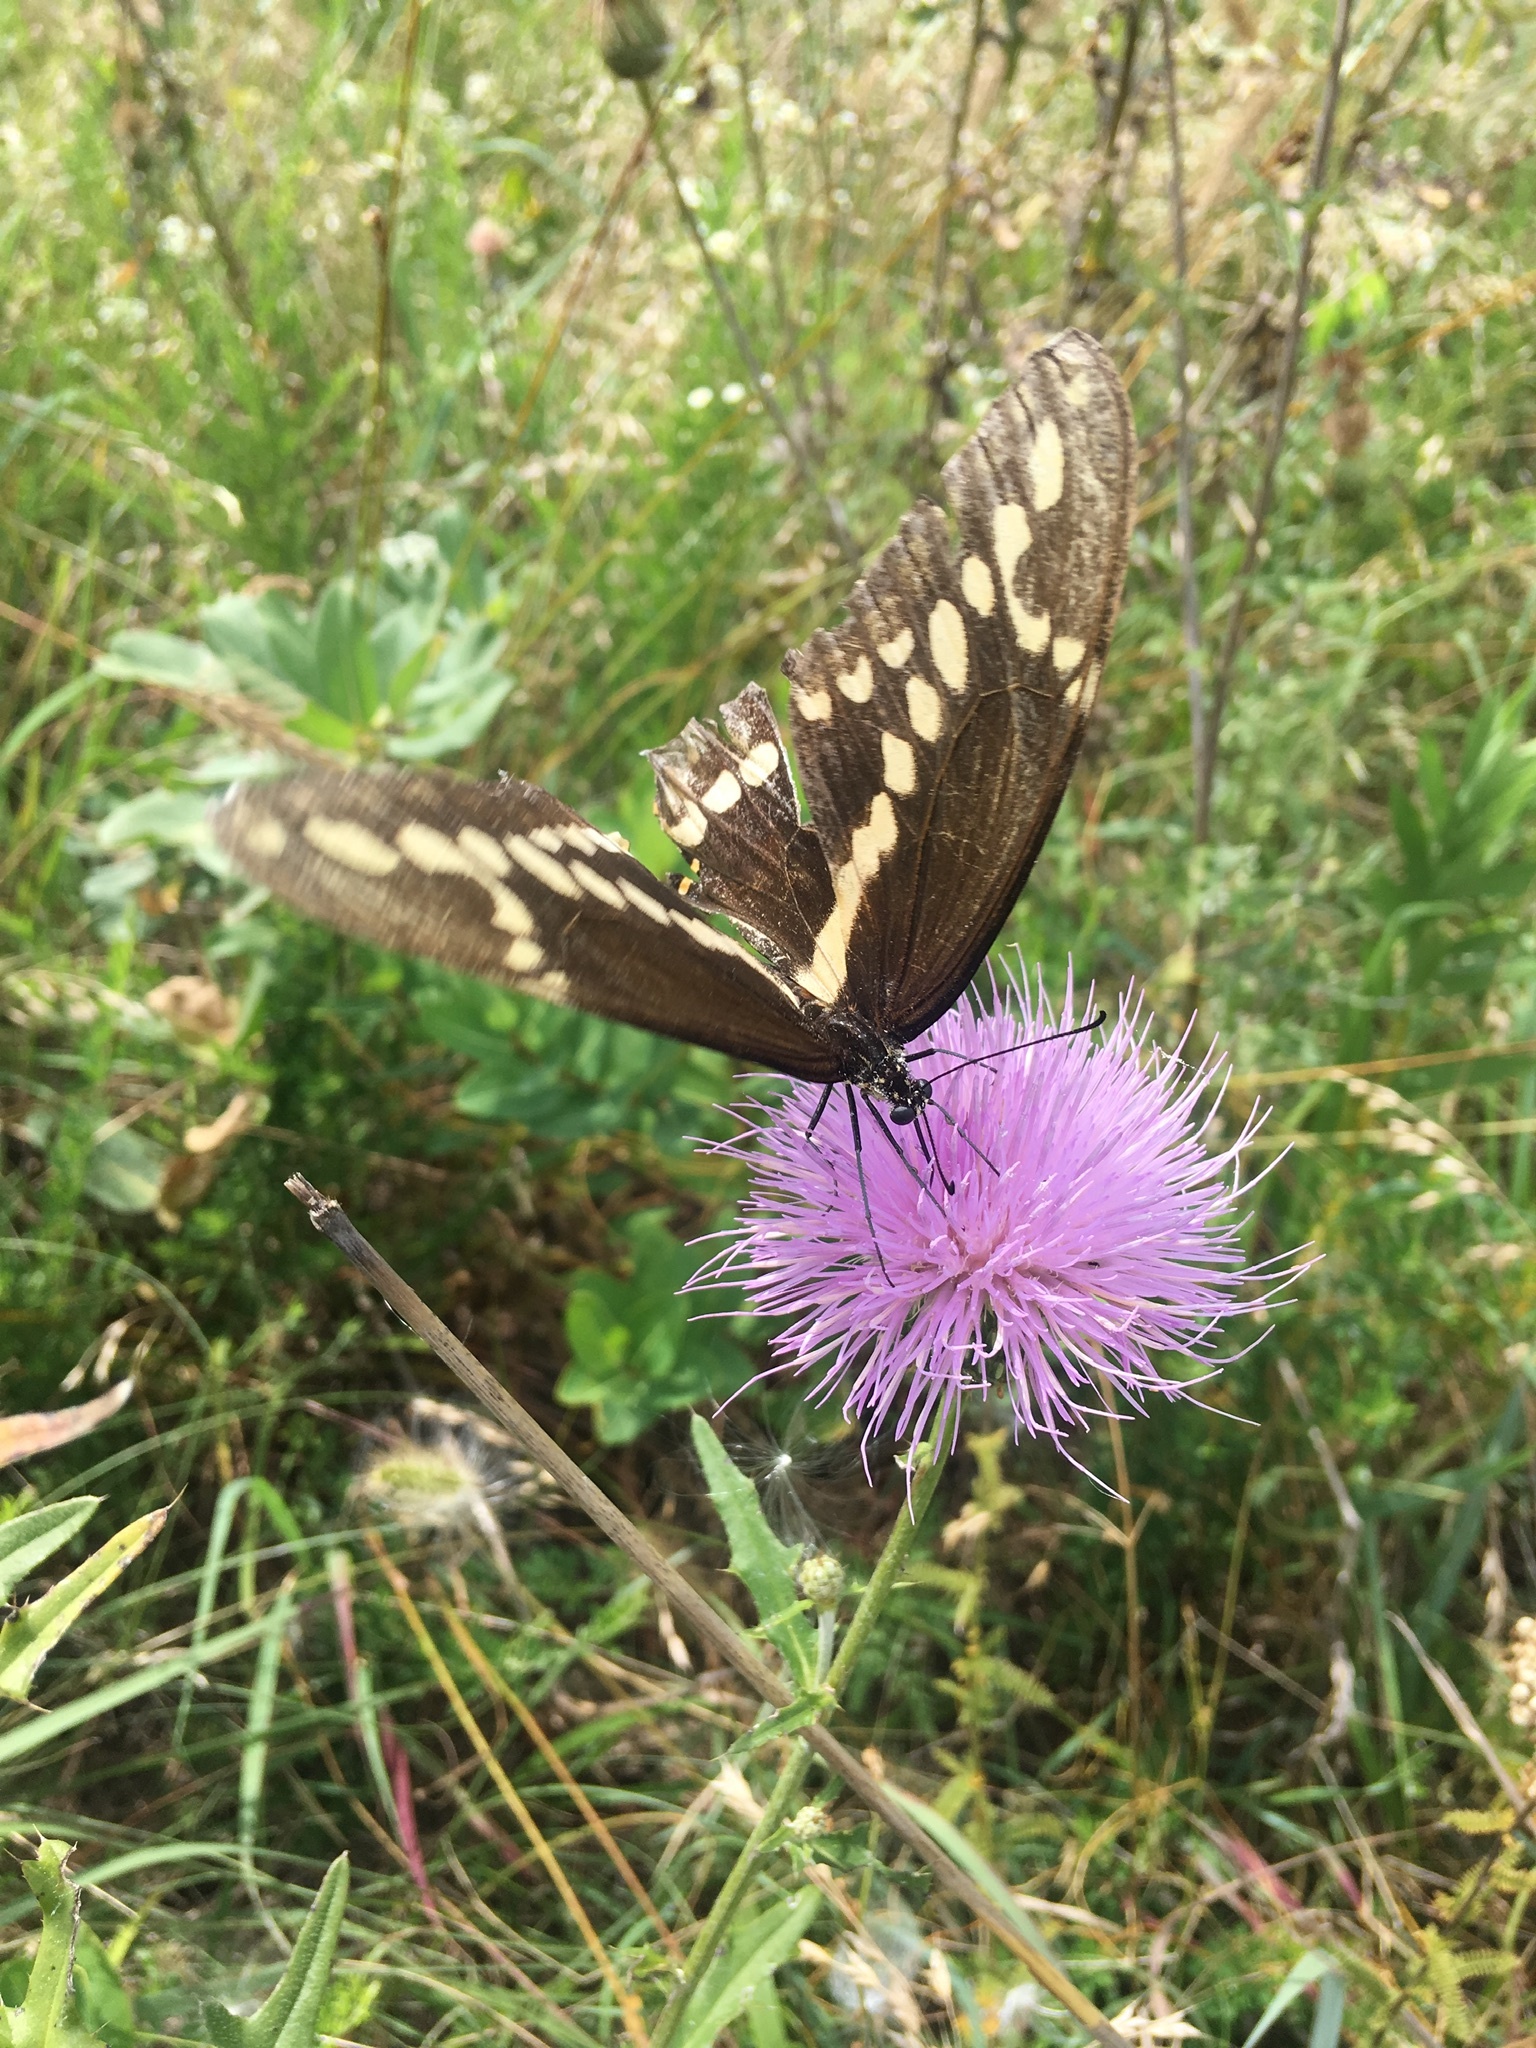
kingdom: Animalia
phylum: Arthropoda
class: Insecta
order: Lepidoptera
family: Papilionidae
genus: Papilio
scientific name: Papilio cresphontes
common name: Giant swallowtail
